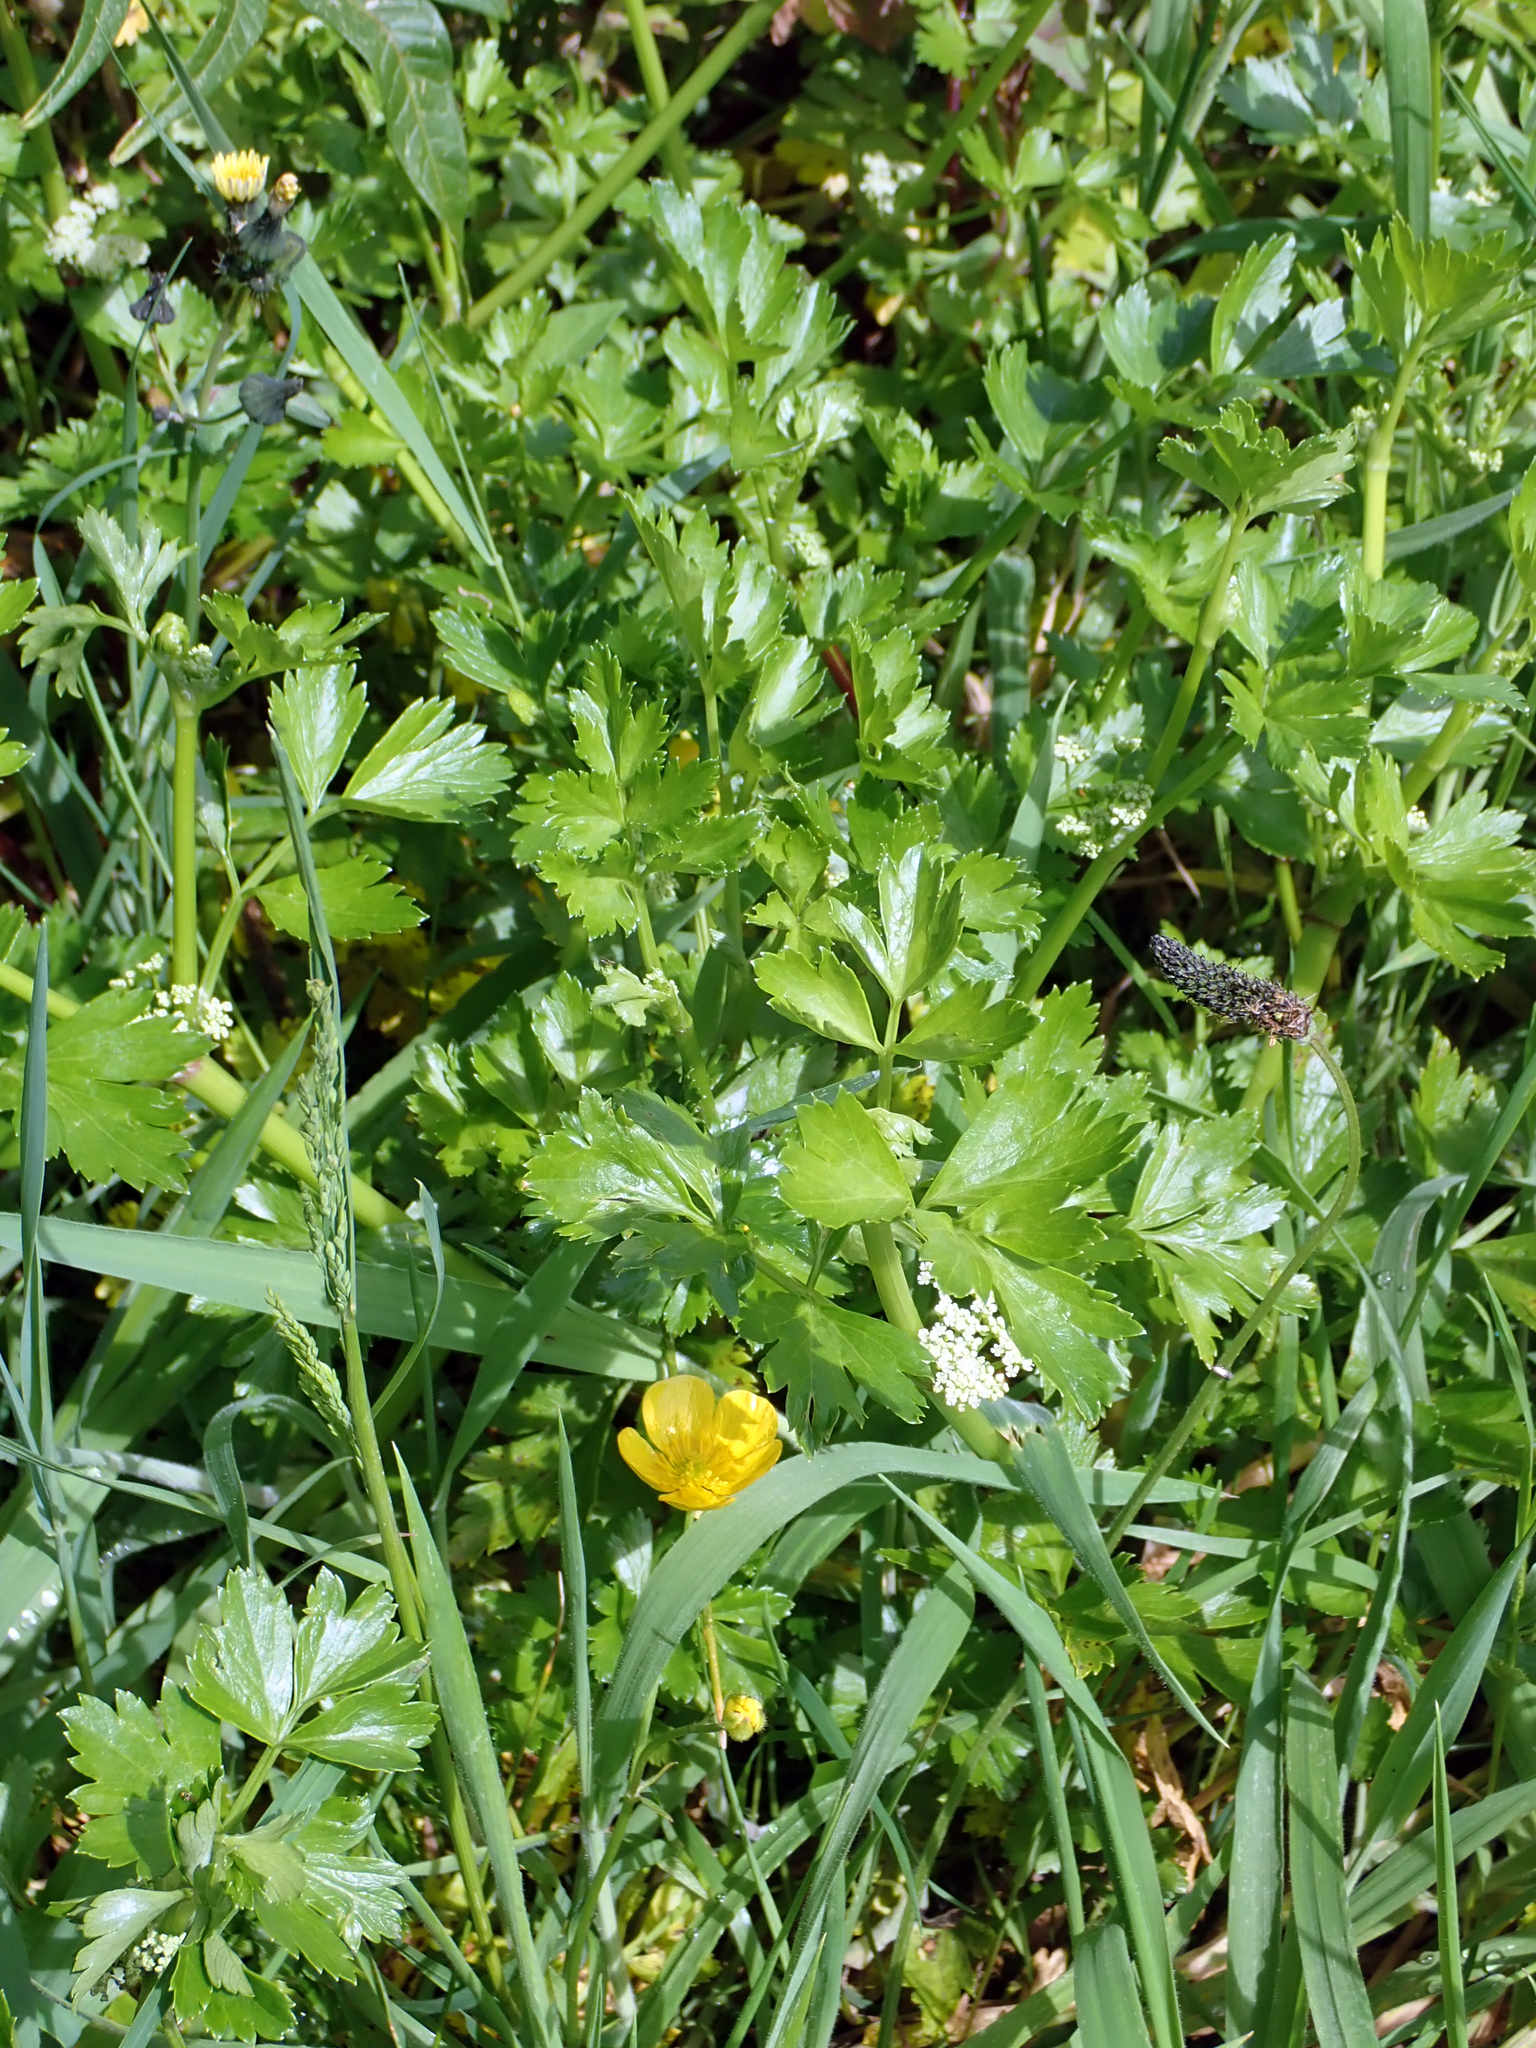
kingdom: Plantae
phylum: Tracheophyta
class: Magnoliopsida
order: Apiales
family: Apiaceae
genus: Apium
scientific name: Apium prostratum
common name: Prostrate marshwort
